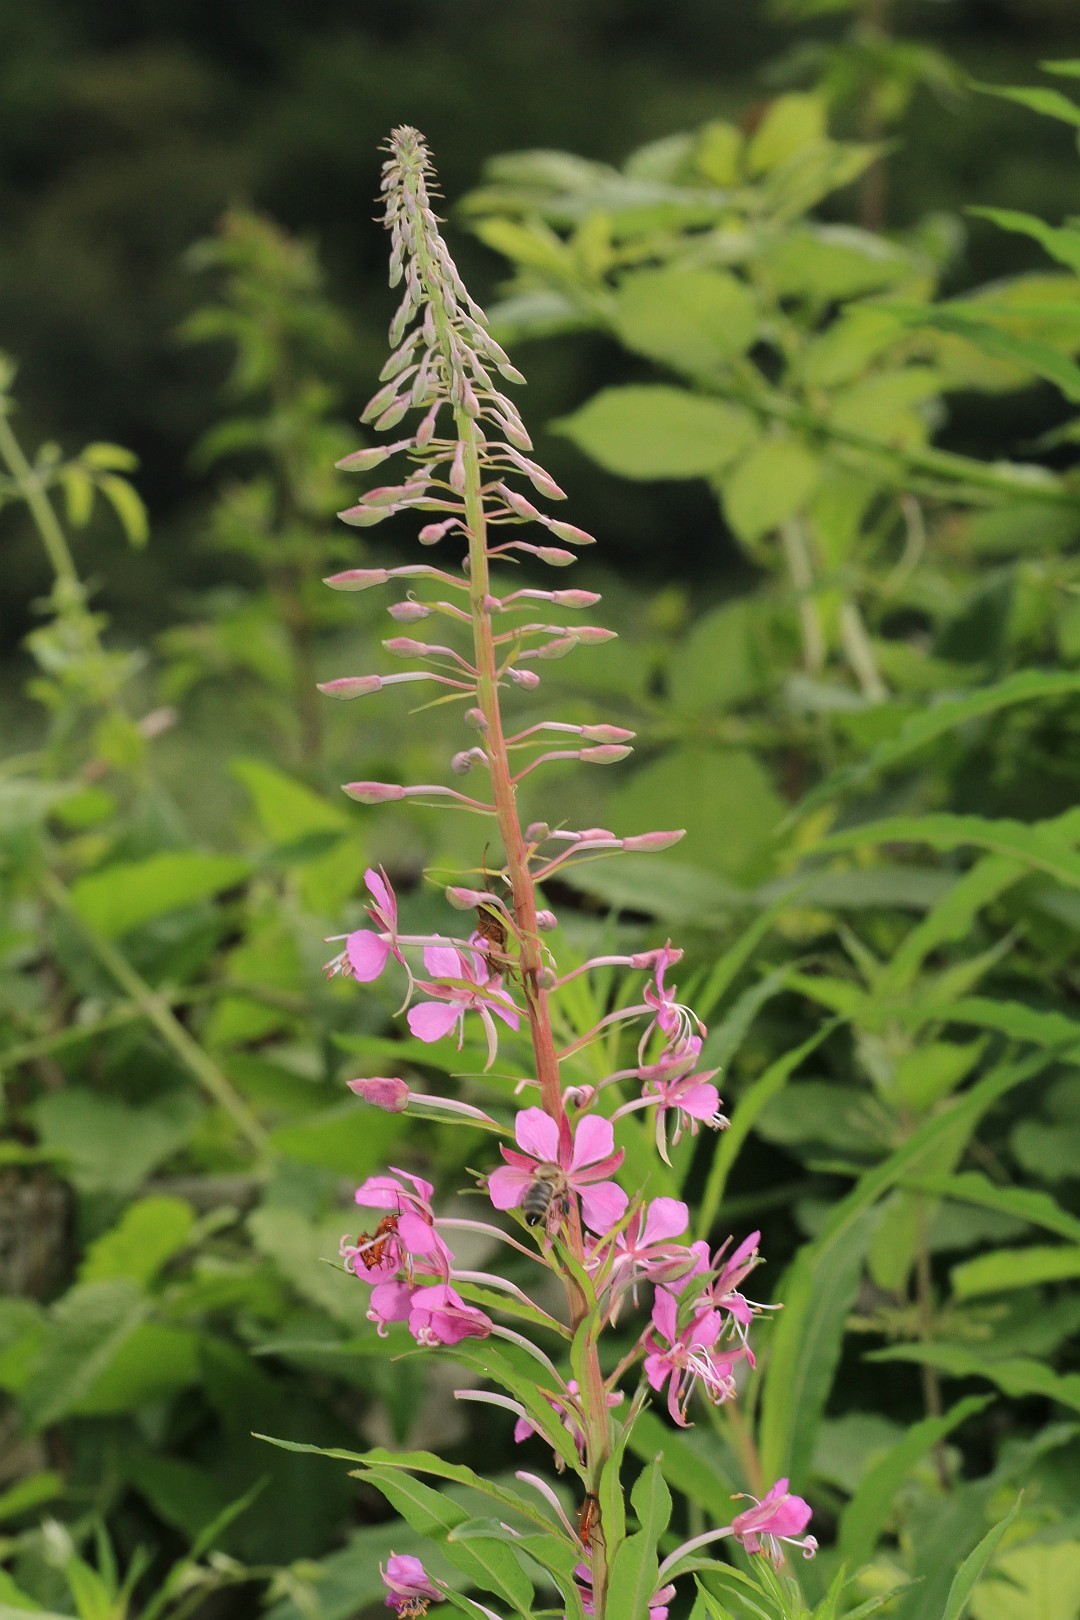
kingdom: Plantae
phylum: Tracheophyta
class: Magnoliopsida
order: Myrtales
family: Onagraceae
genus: Chamaenerion
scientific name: Chamaenerion angustifolium
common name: Fireweed
